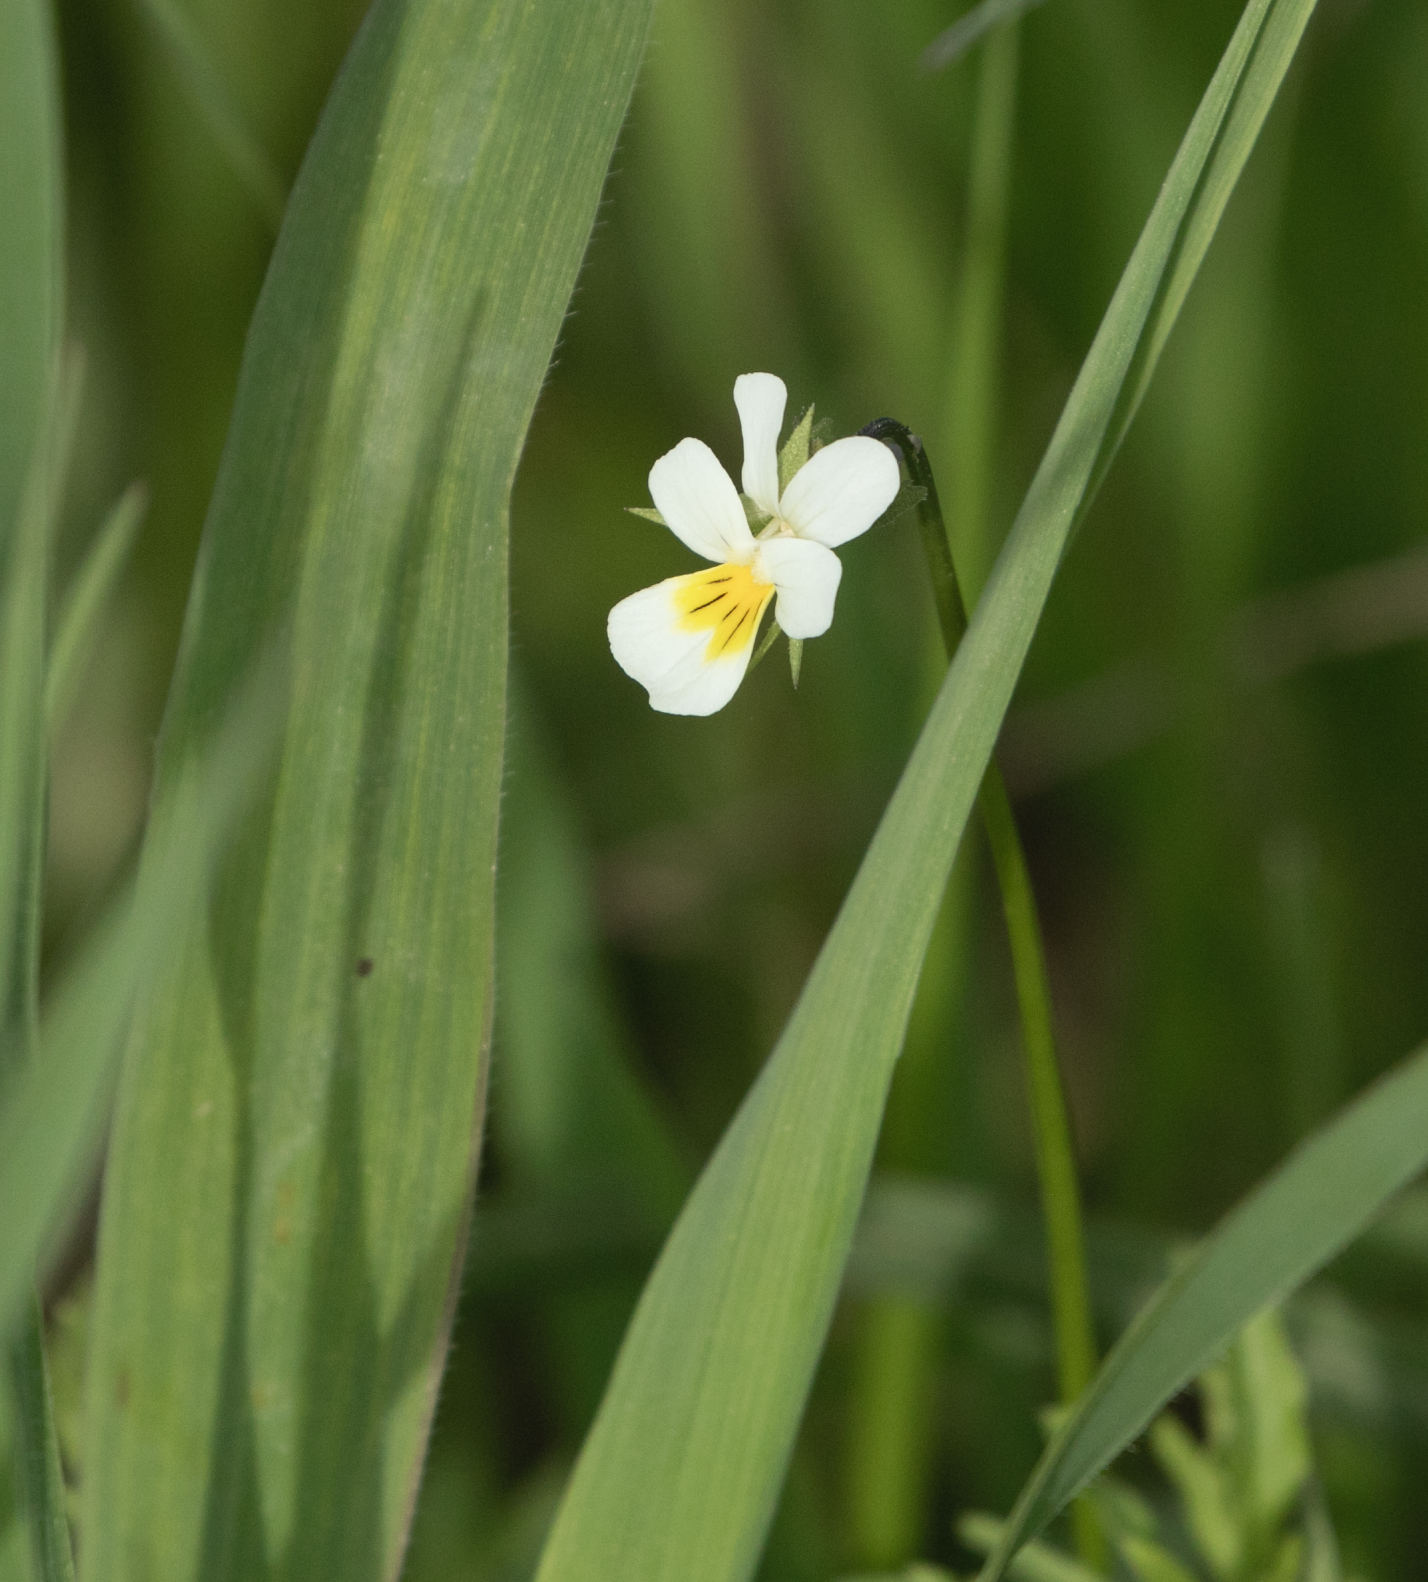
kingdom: Plantae
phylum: Tracheophyta
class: Magnoliopsida
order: Malpighiales
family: Violaceae
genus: Viola
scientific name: Viola arvensis
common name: Field pansy
